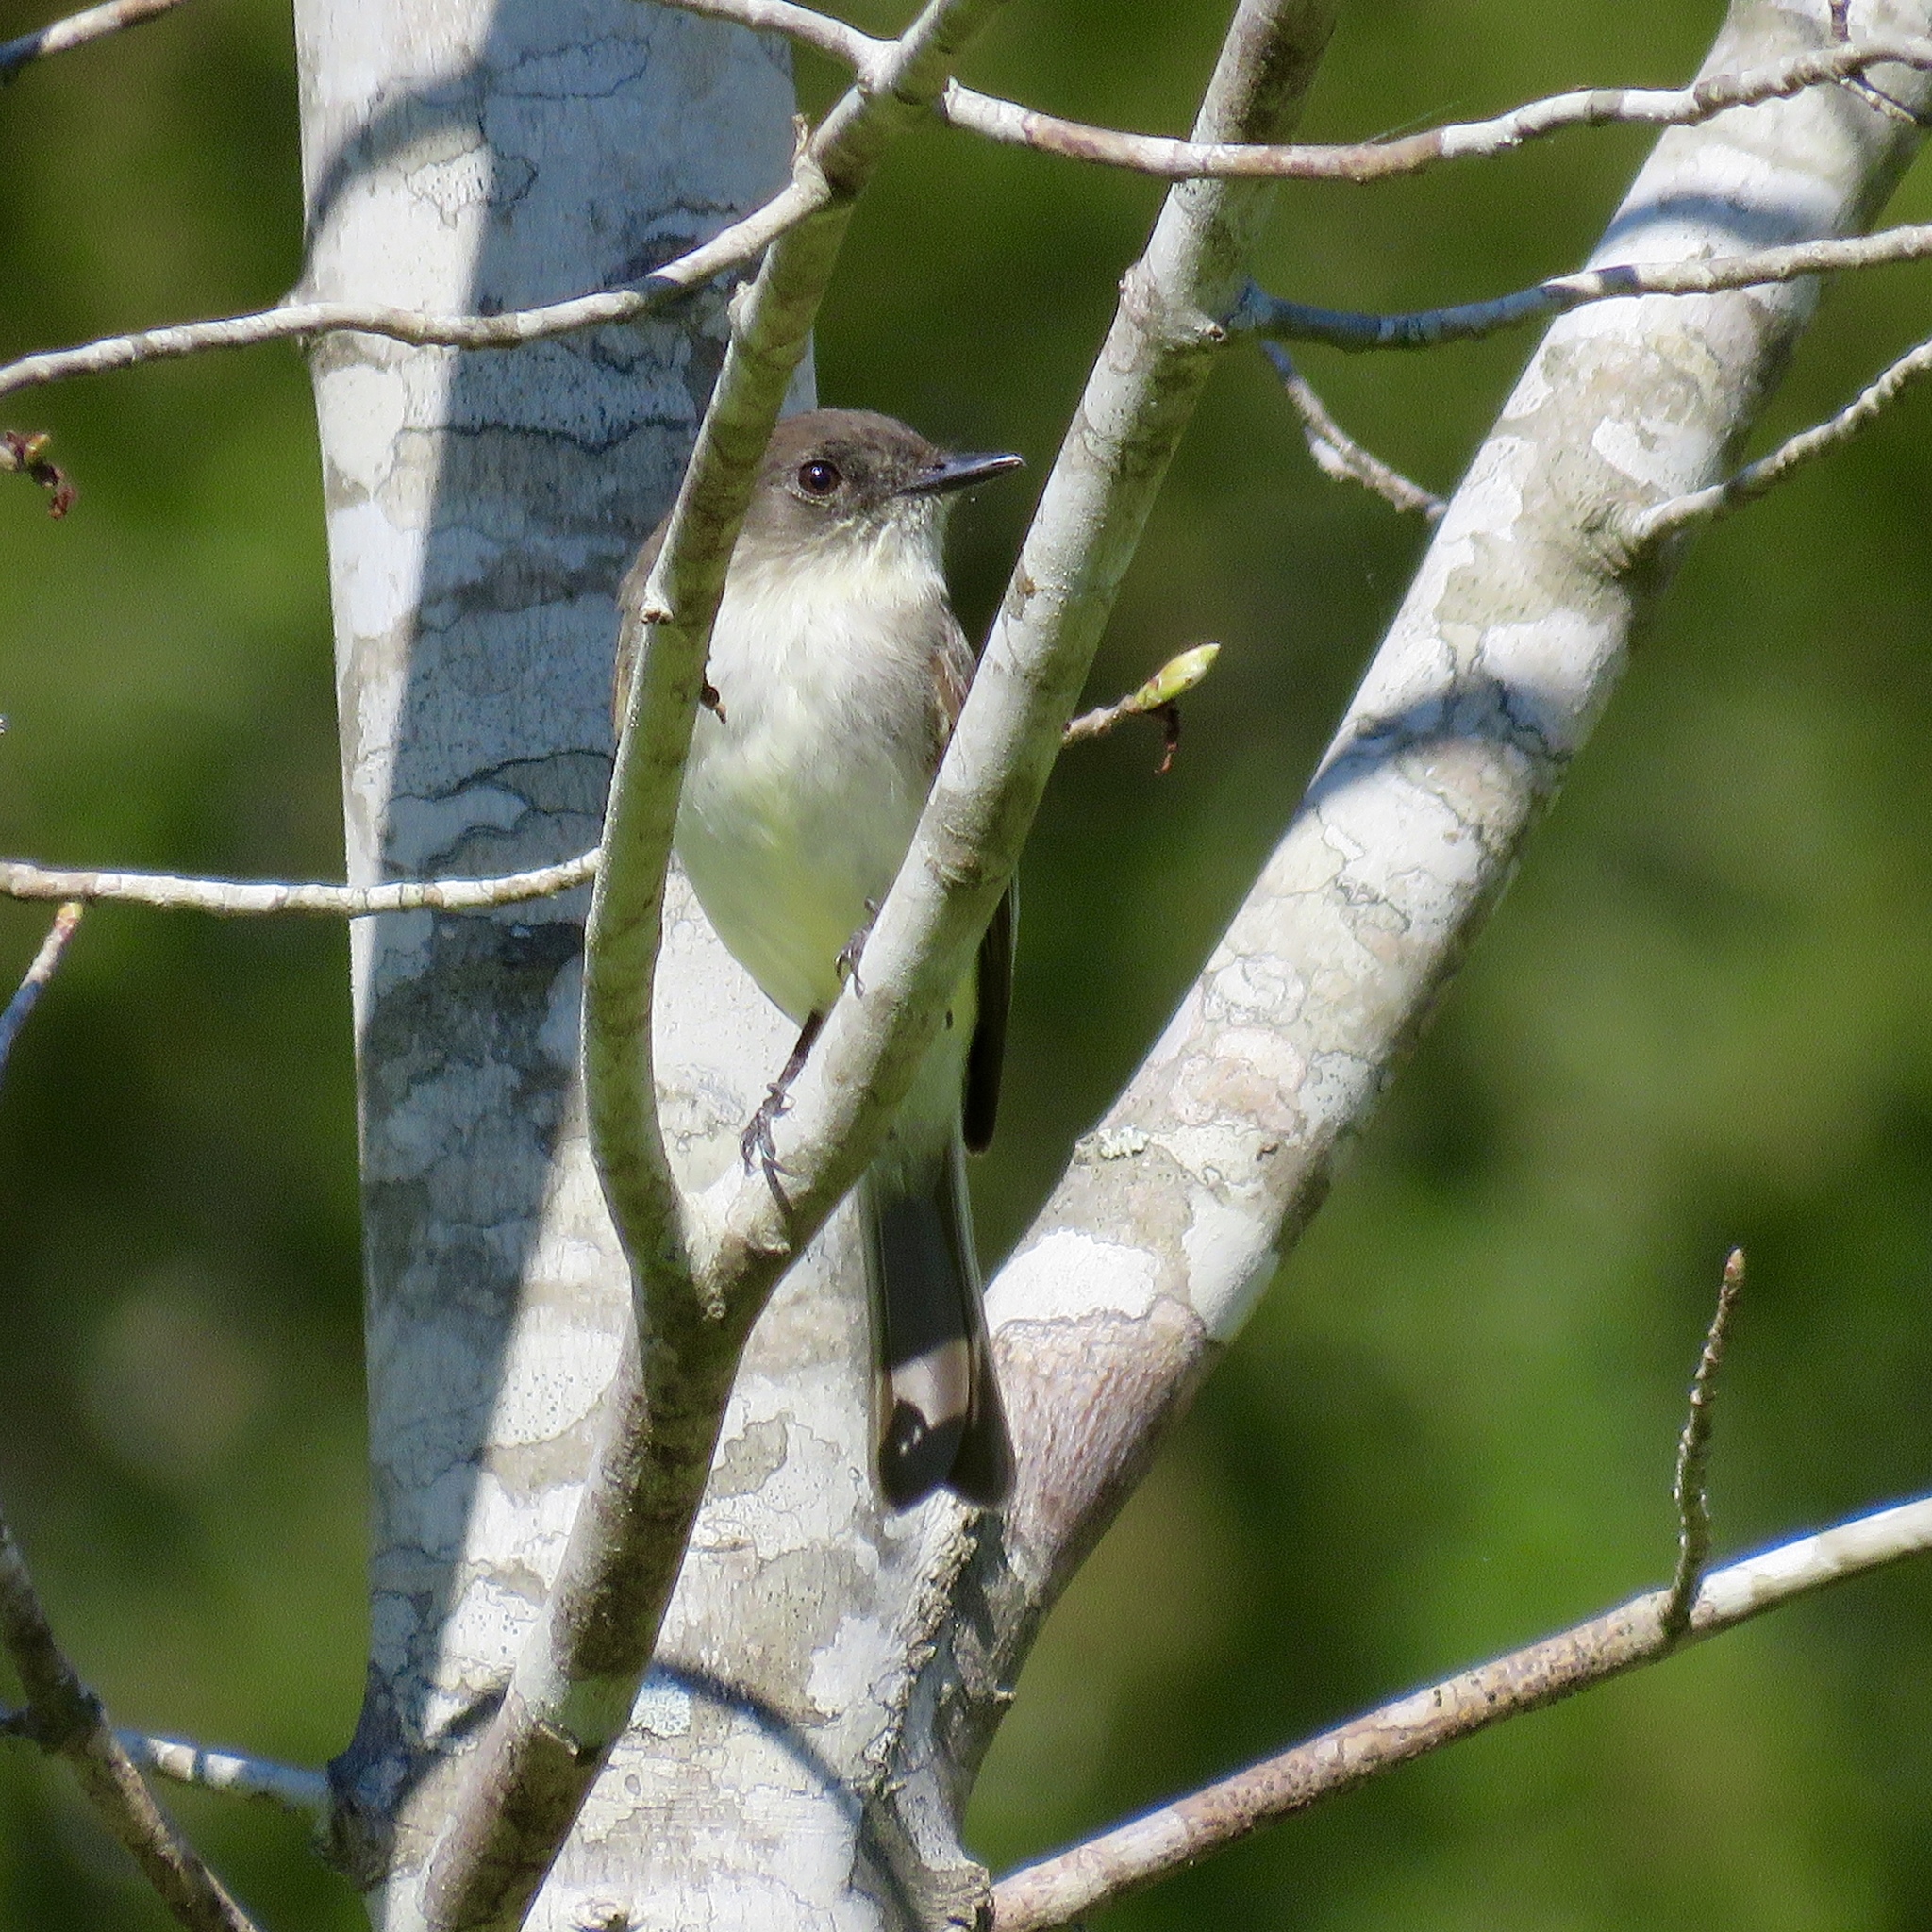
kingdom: Animalia
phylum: Chordata
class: Aves
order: Passeriformes
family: Tyrannidae
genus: Sayornis
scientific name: Sayornis phoebe
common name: Eastern phoebe
